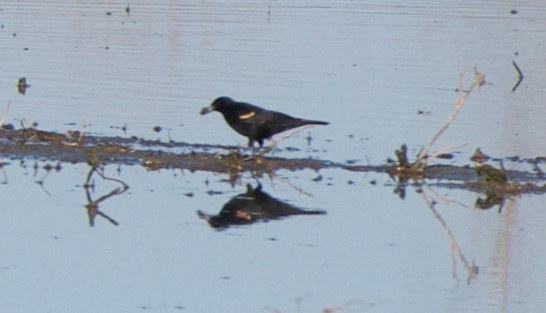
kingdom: Animalia
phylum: Chordata
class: Aves
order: Passeriformes
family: Icteridae
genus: Agelaius
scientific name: Agelaius phoeniceus
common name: Red-winged blackbird
